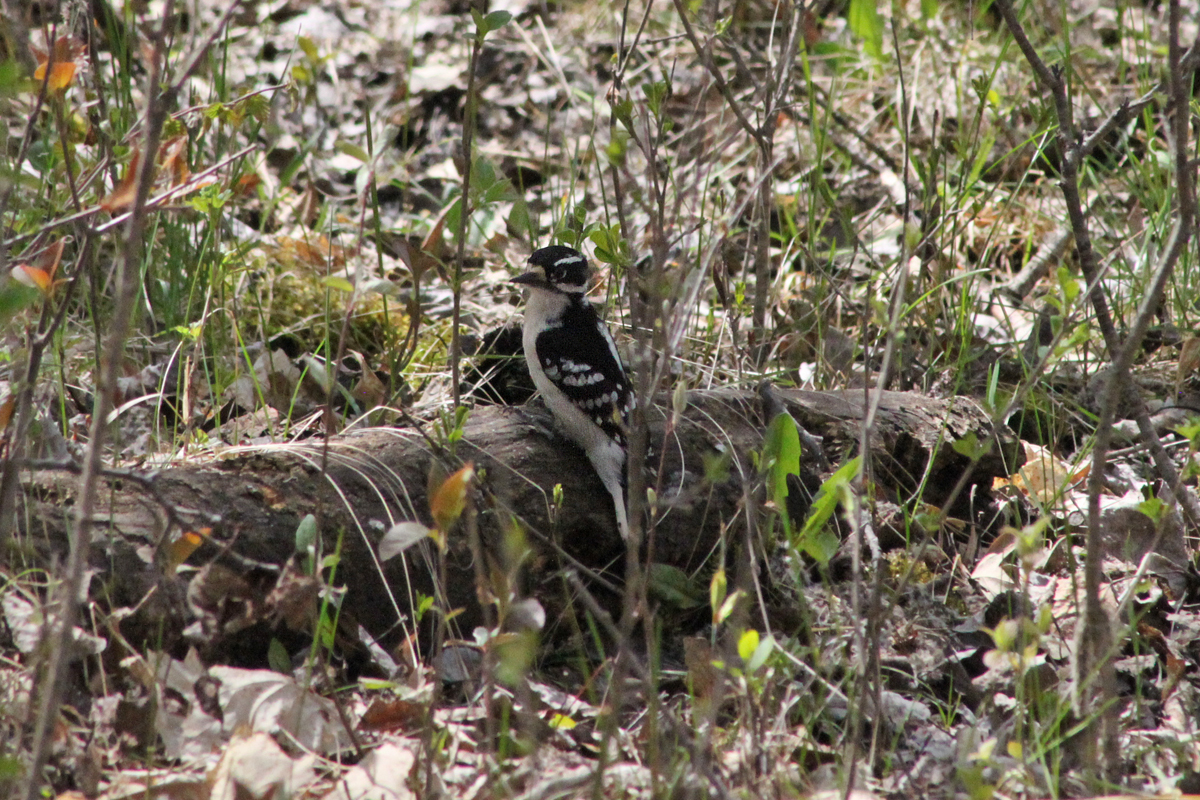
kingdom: Animalia
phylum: Chordata
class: Aves
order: Piciformes
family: Picidae
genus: Leuconotopicus
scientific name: Leuconotopicus villosus
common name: Hairy woodpecker
